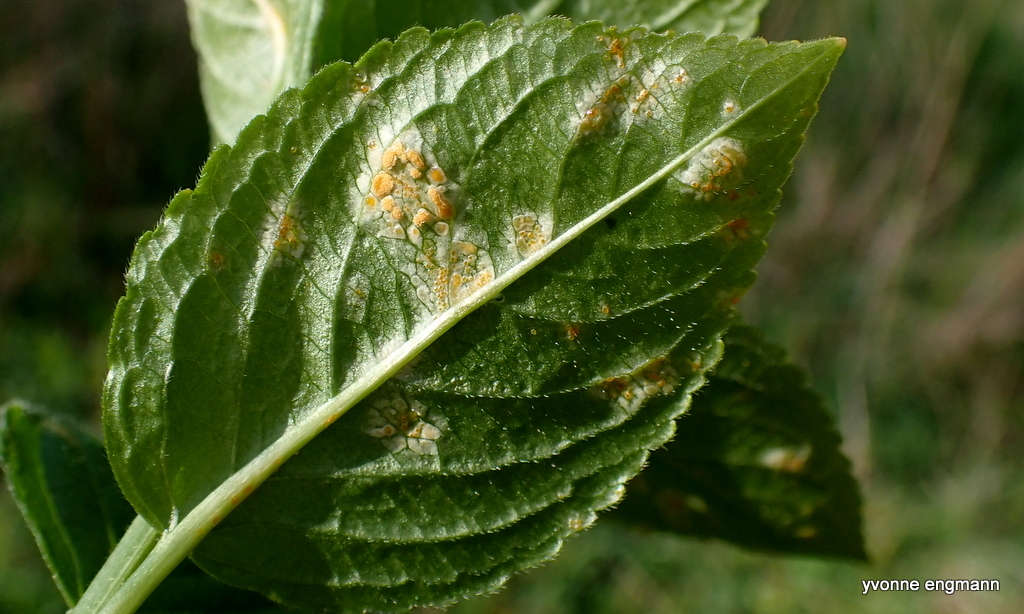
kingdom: Fungi
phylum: Basidiomycota
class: Pucciniomycetes
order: Pucciniales
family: Melampsoraceae
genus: Melampsora
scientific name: Melampsora rostrupii
